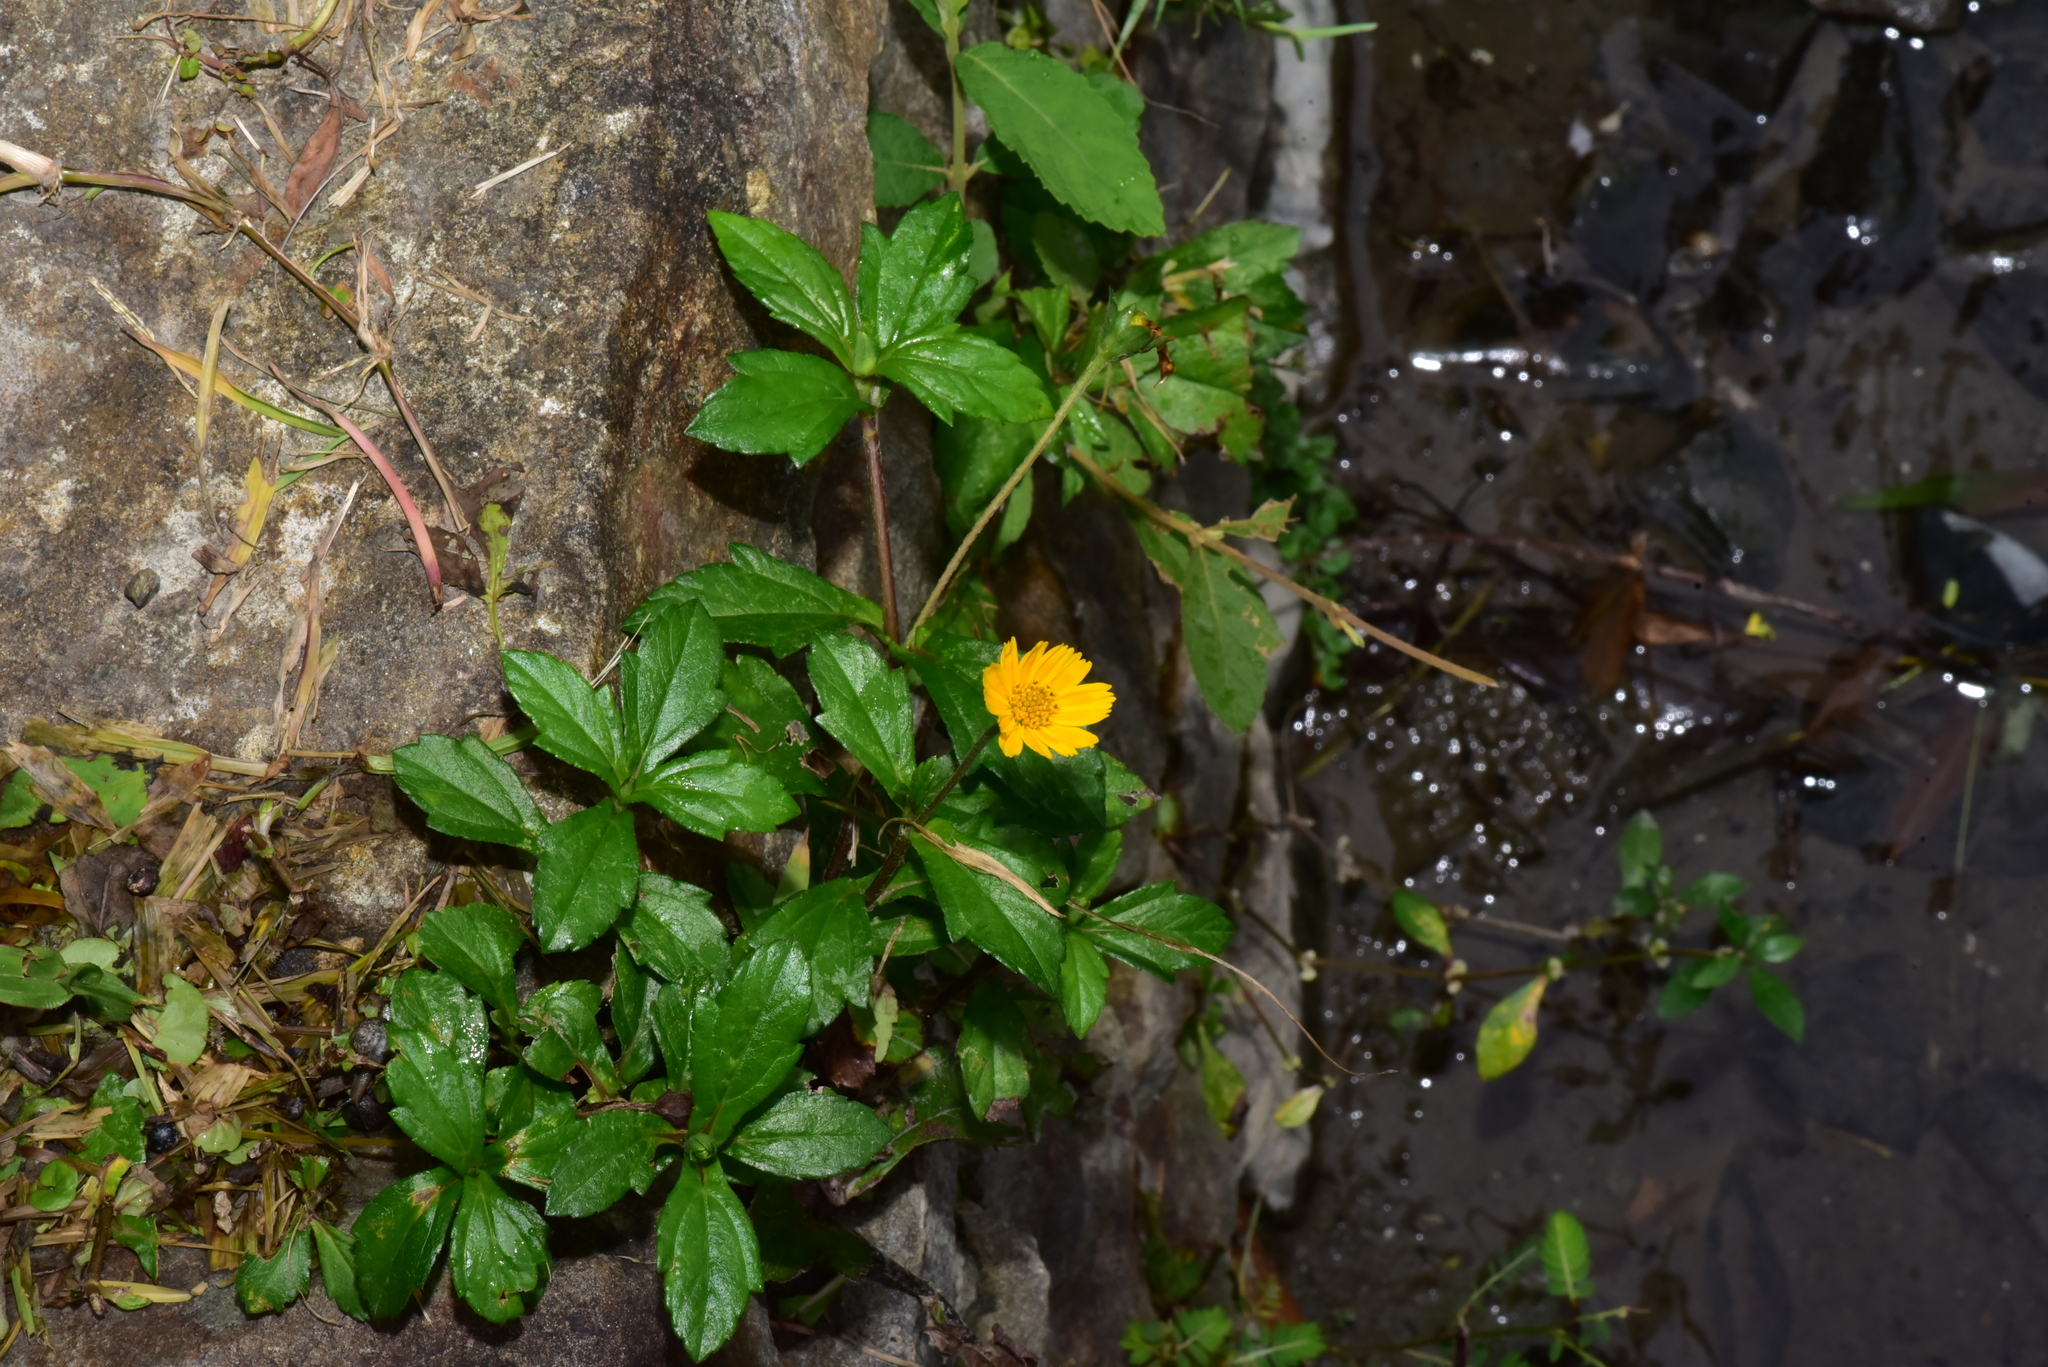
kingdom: Plantae
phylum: Tracheophyta
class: Magnoliopsida
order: Asterales
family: Asteraceae
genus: Sphagneticola
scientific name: Sphagneticola trilobata
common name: Bay biscayne creeping-oxeye
